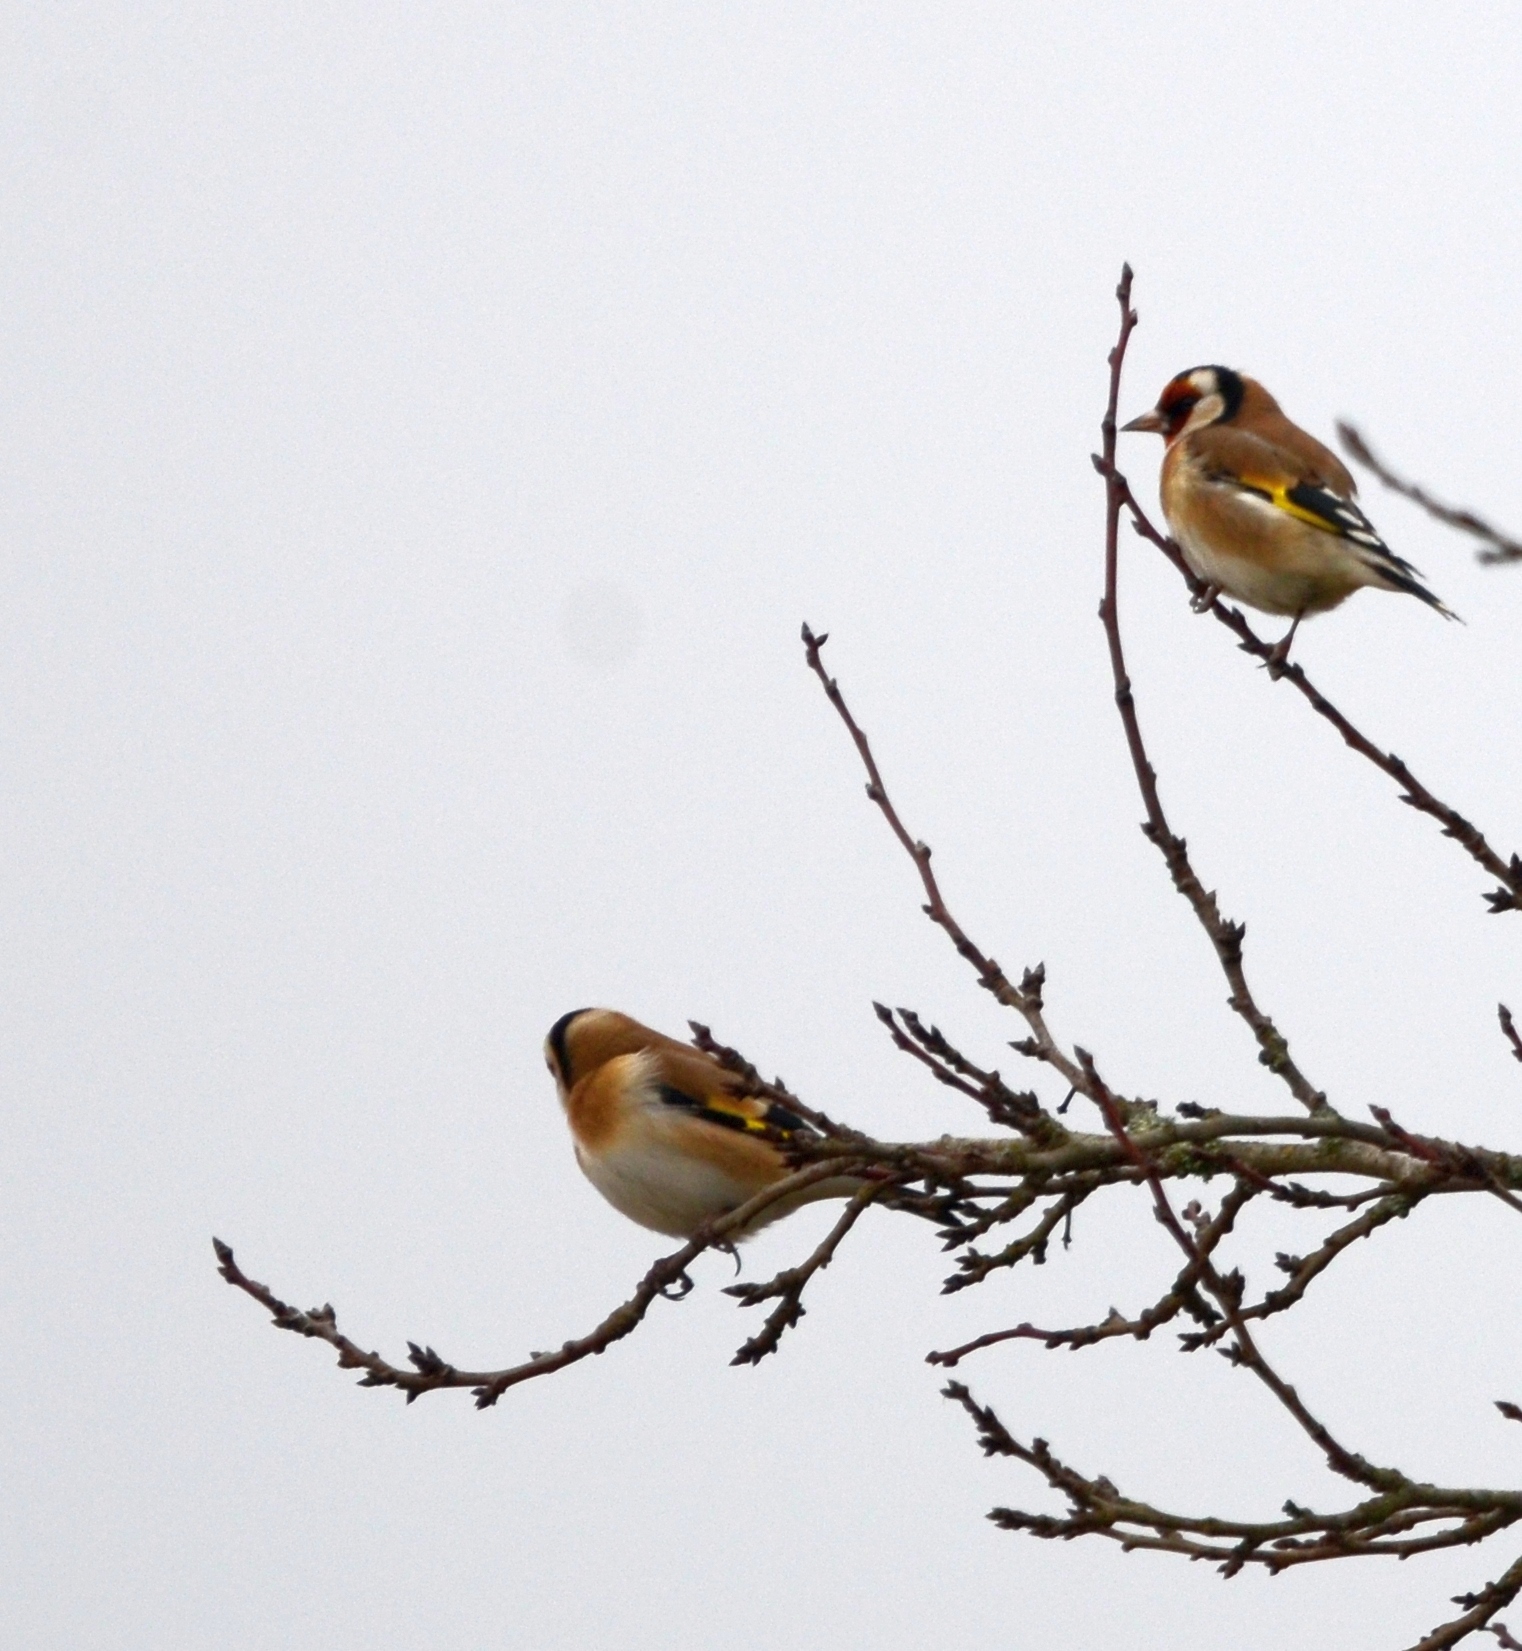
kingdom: Animalia
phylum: Chordata
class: Aves
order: Passeriformes
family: Fringillidae
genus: Carduelis
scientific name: Carduelis carduelis
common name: European goldfinch
